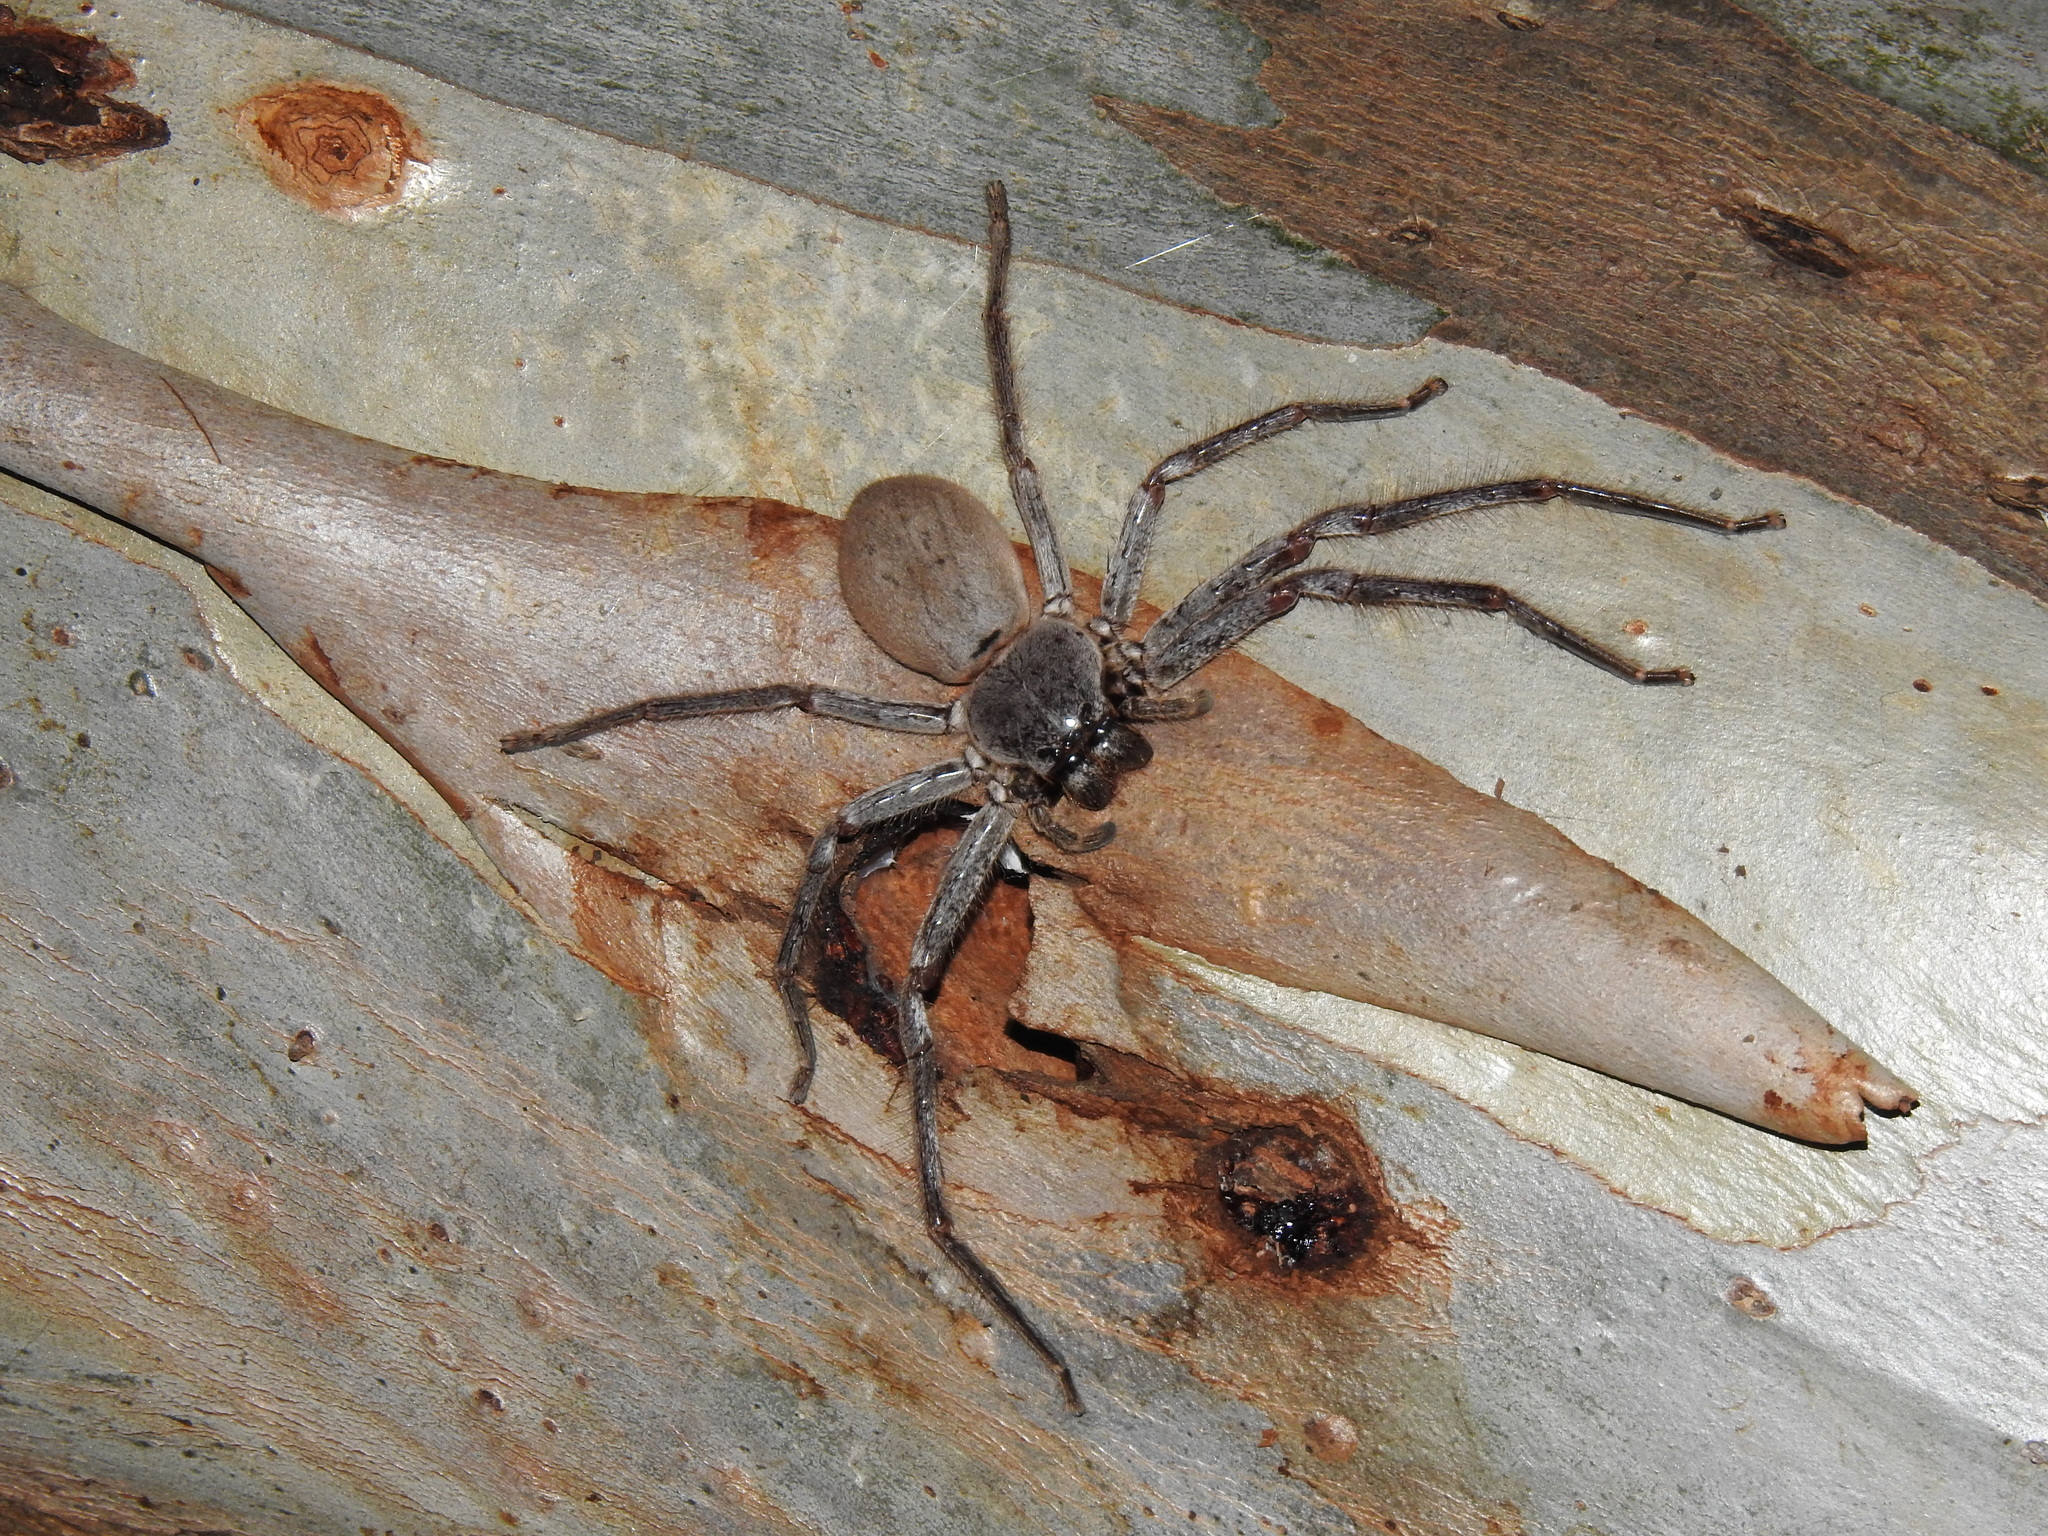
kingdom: Animalia
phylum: Arthropoda
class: Arachnida
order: Araneae
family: Sparassidae
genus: Isopeda
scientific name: Isopeda prolata
